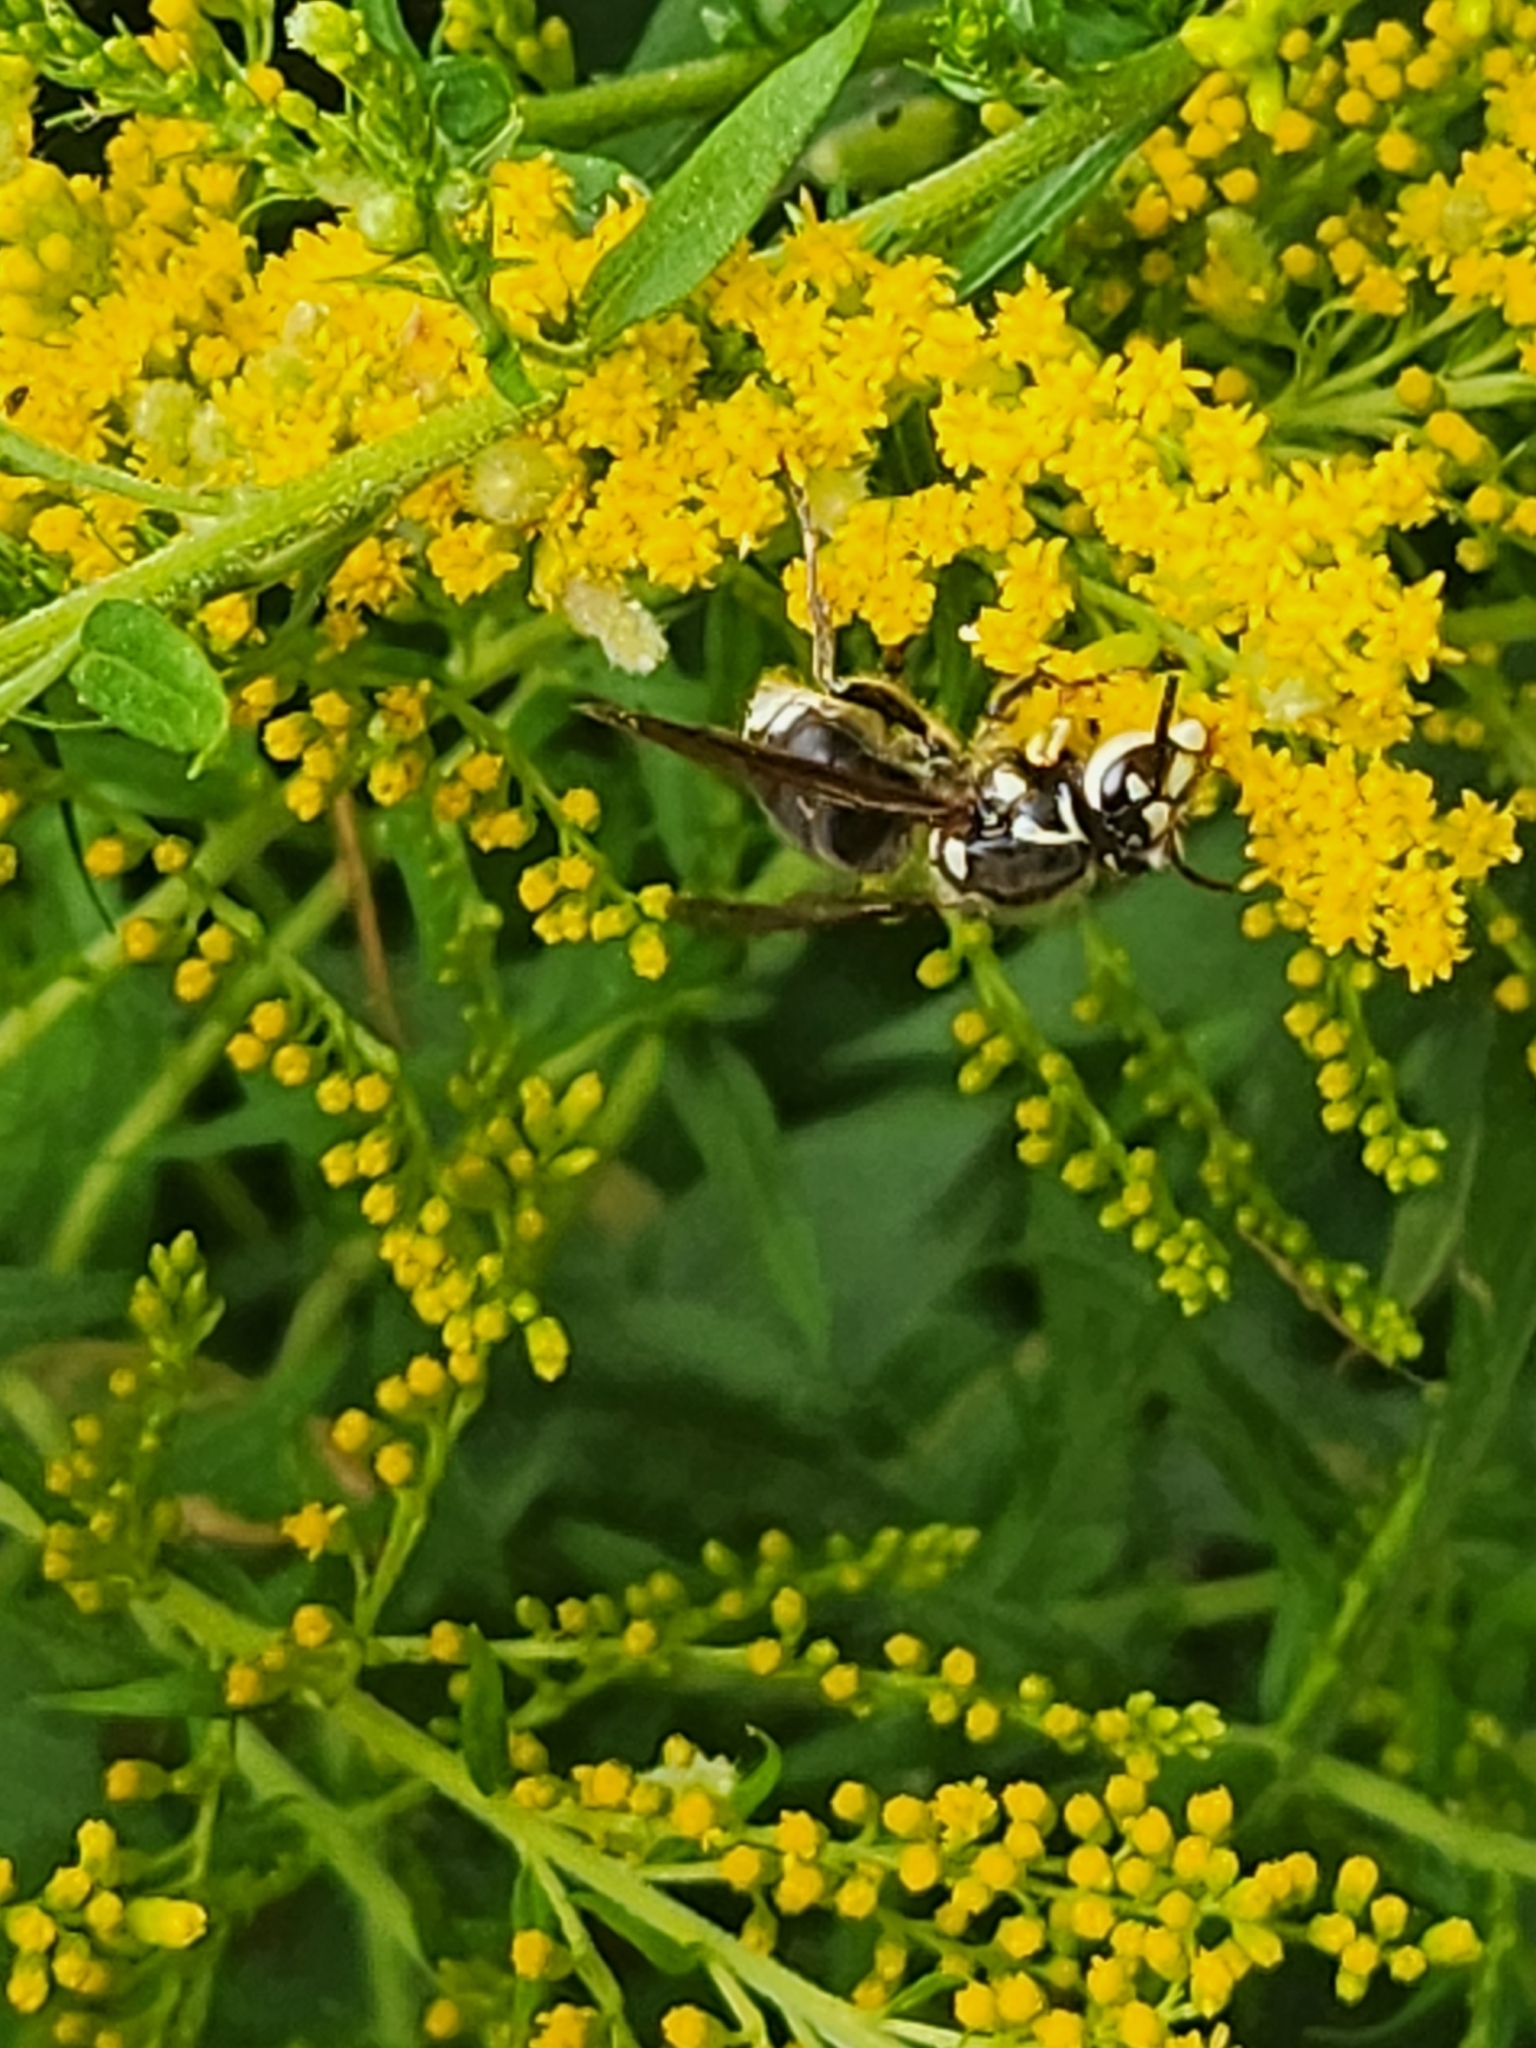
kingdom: Animalia
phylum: Arthropoda
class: Insecta
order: Hymenoptera
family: Vespidae
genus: Dolichovespula
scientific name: Dolichovespula maculata
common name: Bald-faced hornet
